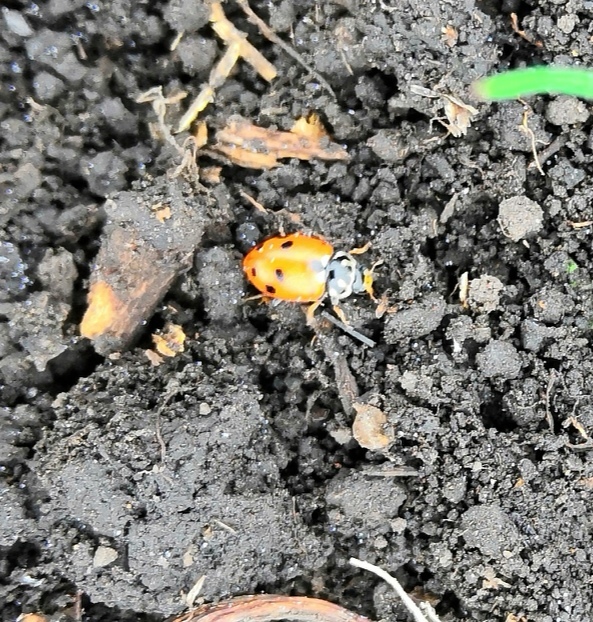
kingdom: Animalia
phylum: Arthropoda
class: Insecta
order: Coleoptera
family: Coccinellidae
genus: Hippodamia
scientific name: Hippodamia variegata
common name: Ladybird beetle
